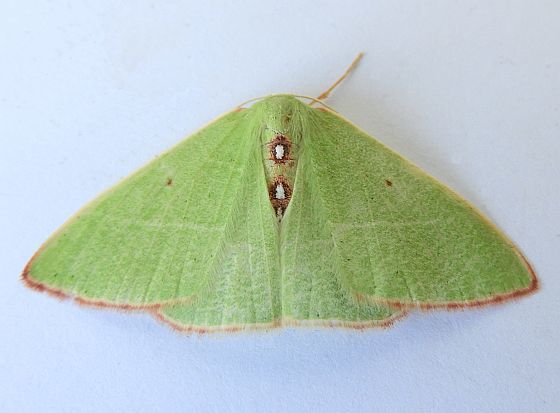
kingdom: Animalia
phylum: Arthropoda
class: Insecta
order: Lepidoptera
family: Geometridae
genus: Nemoria
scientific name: Nemoria darwiniata
